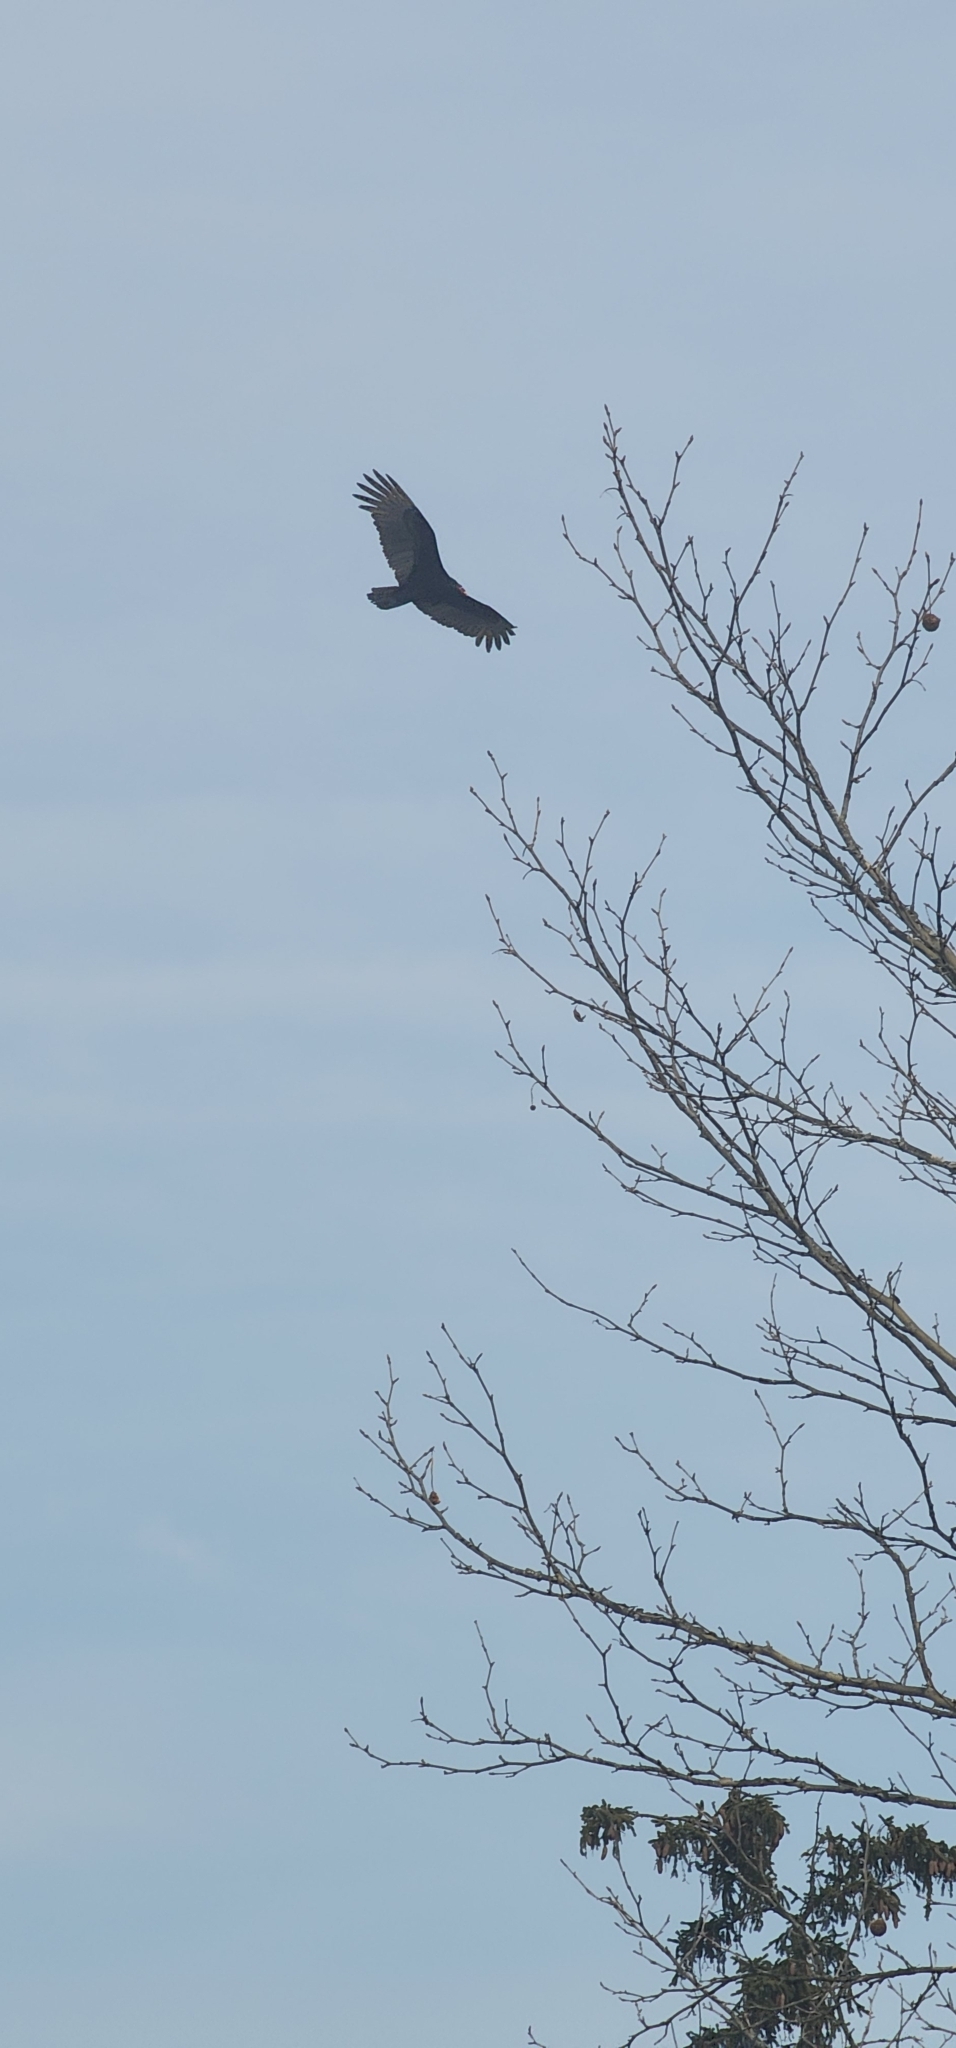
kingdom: Animalia
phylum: Chordata
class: Aves
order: Accipitriformes
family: Cathartidae
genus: Cathartes
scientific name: Cathartes aura
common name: Turkey vulture
